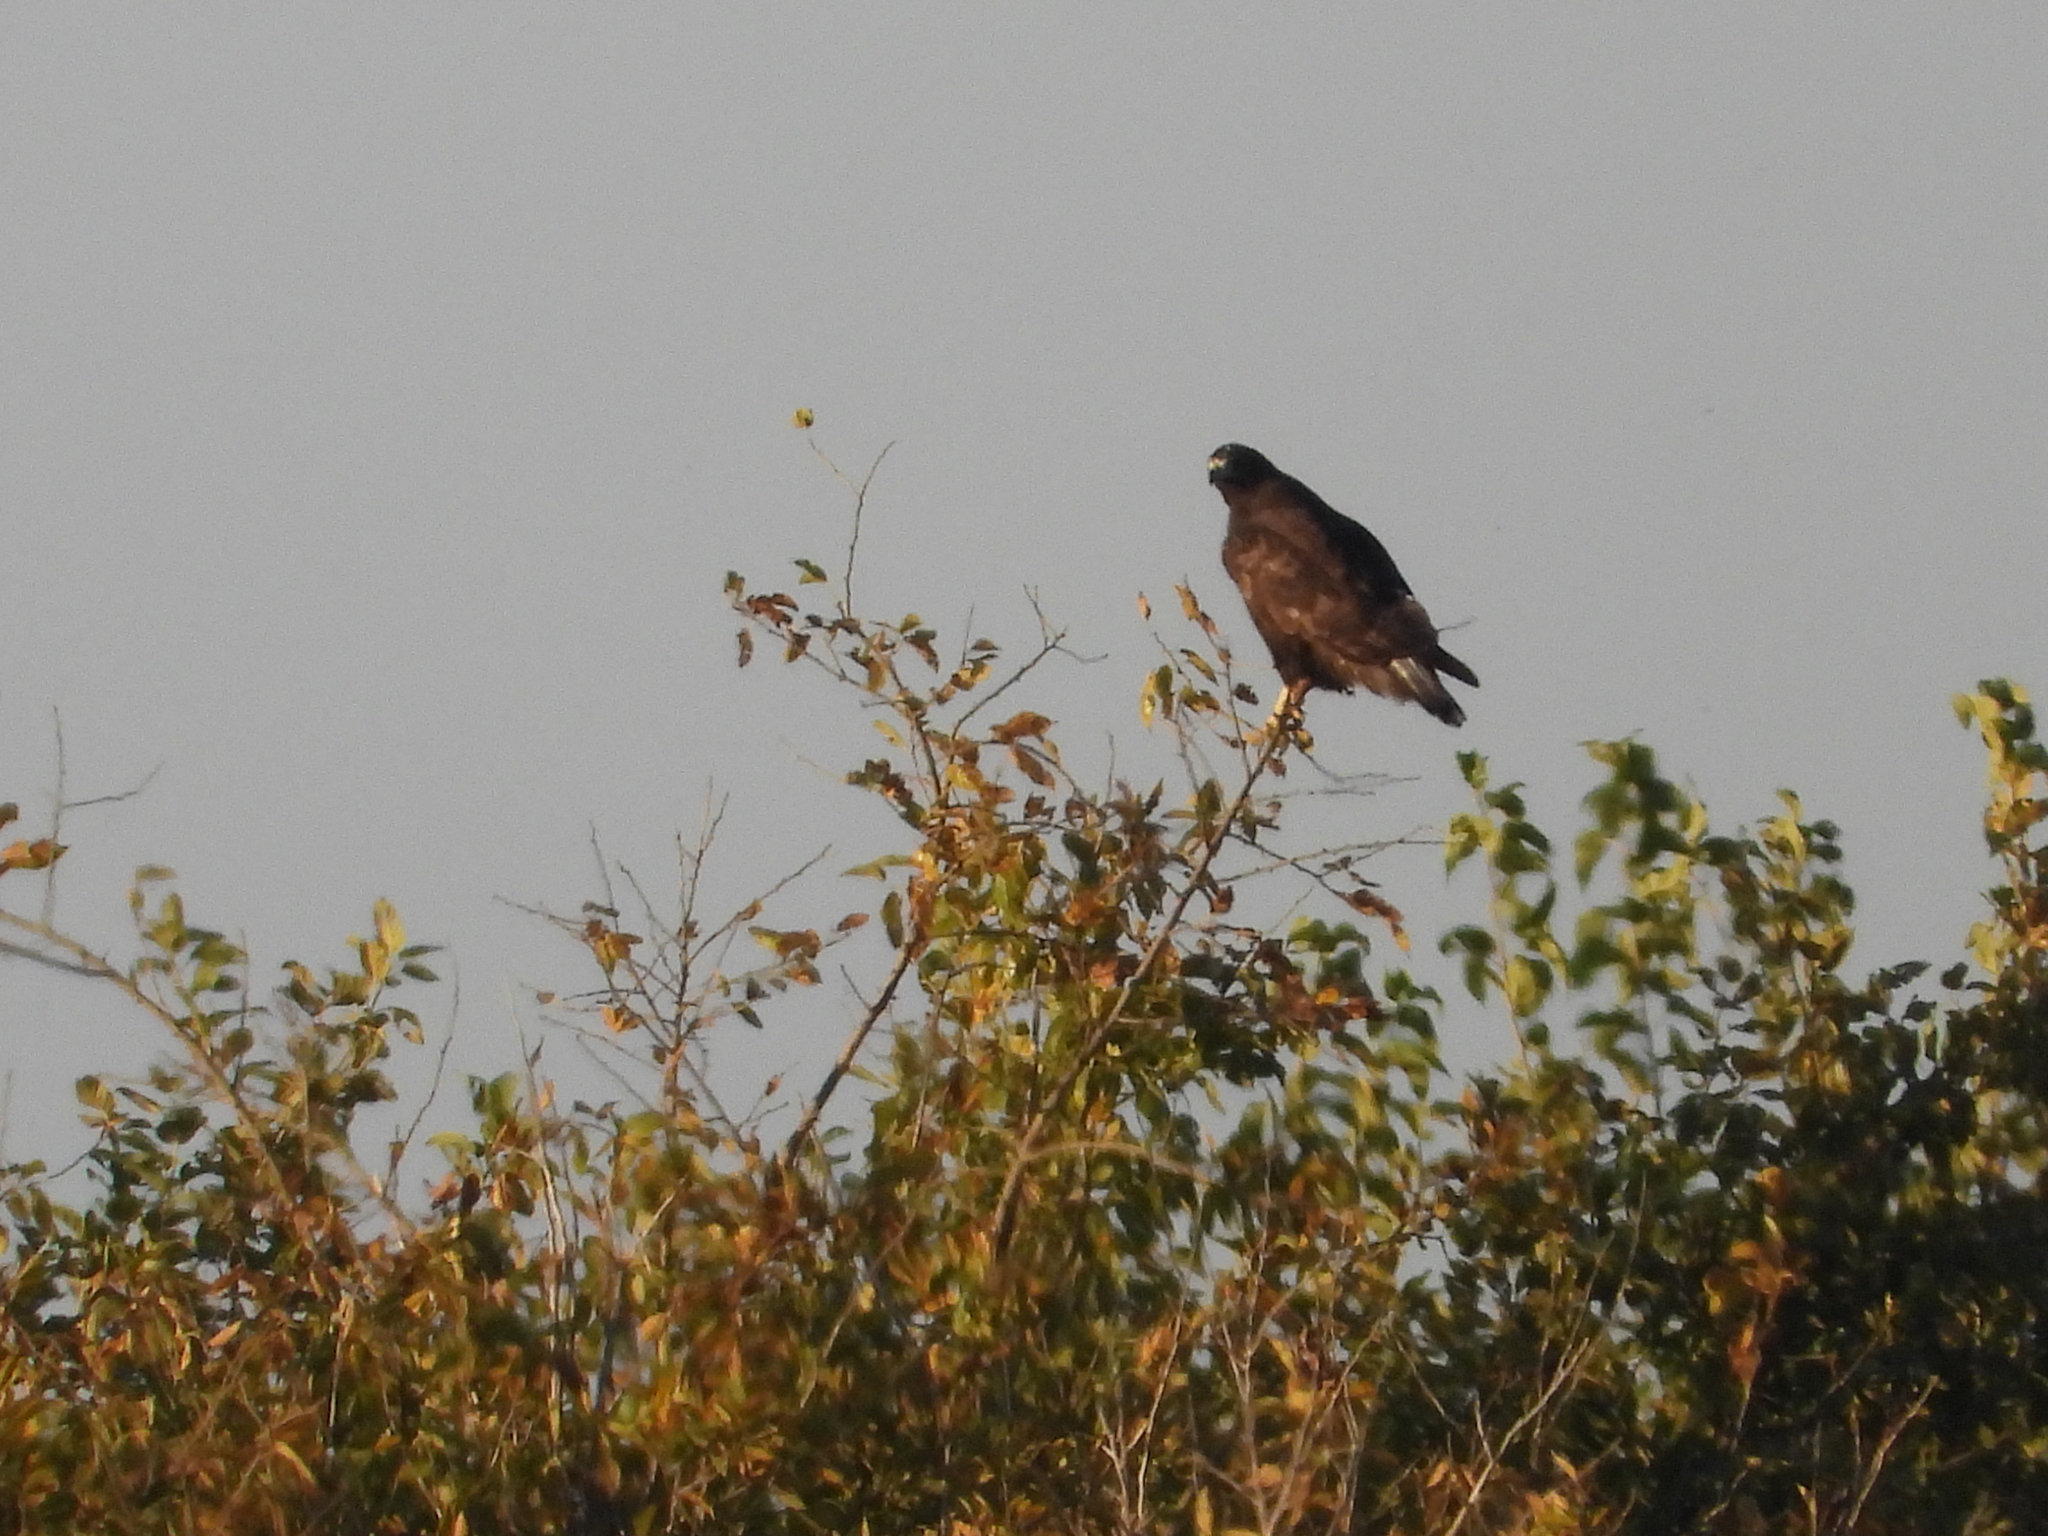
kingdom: Animalia
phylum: Chordata
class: Aves
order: Accipitriformes
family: Accipitridae
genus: Buteo
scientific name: Buteo jamaicensis
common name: Red-tailed hawk
